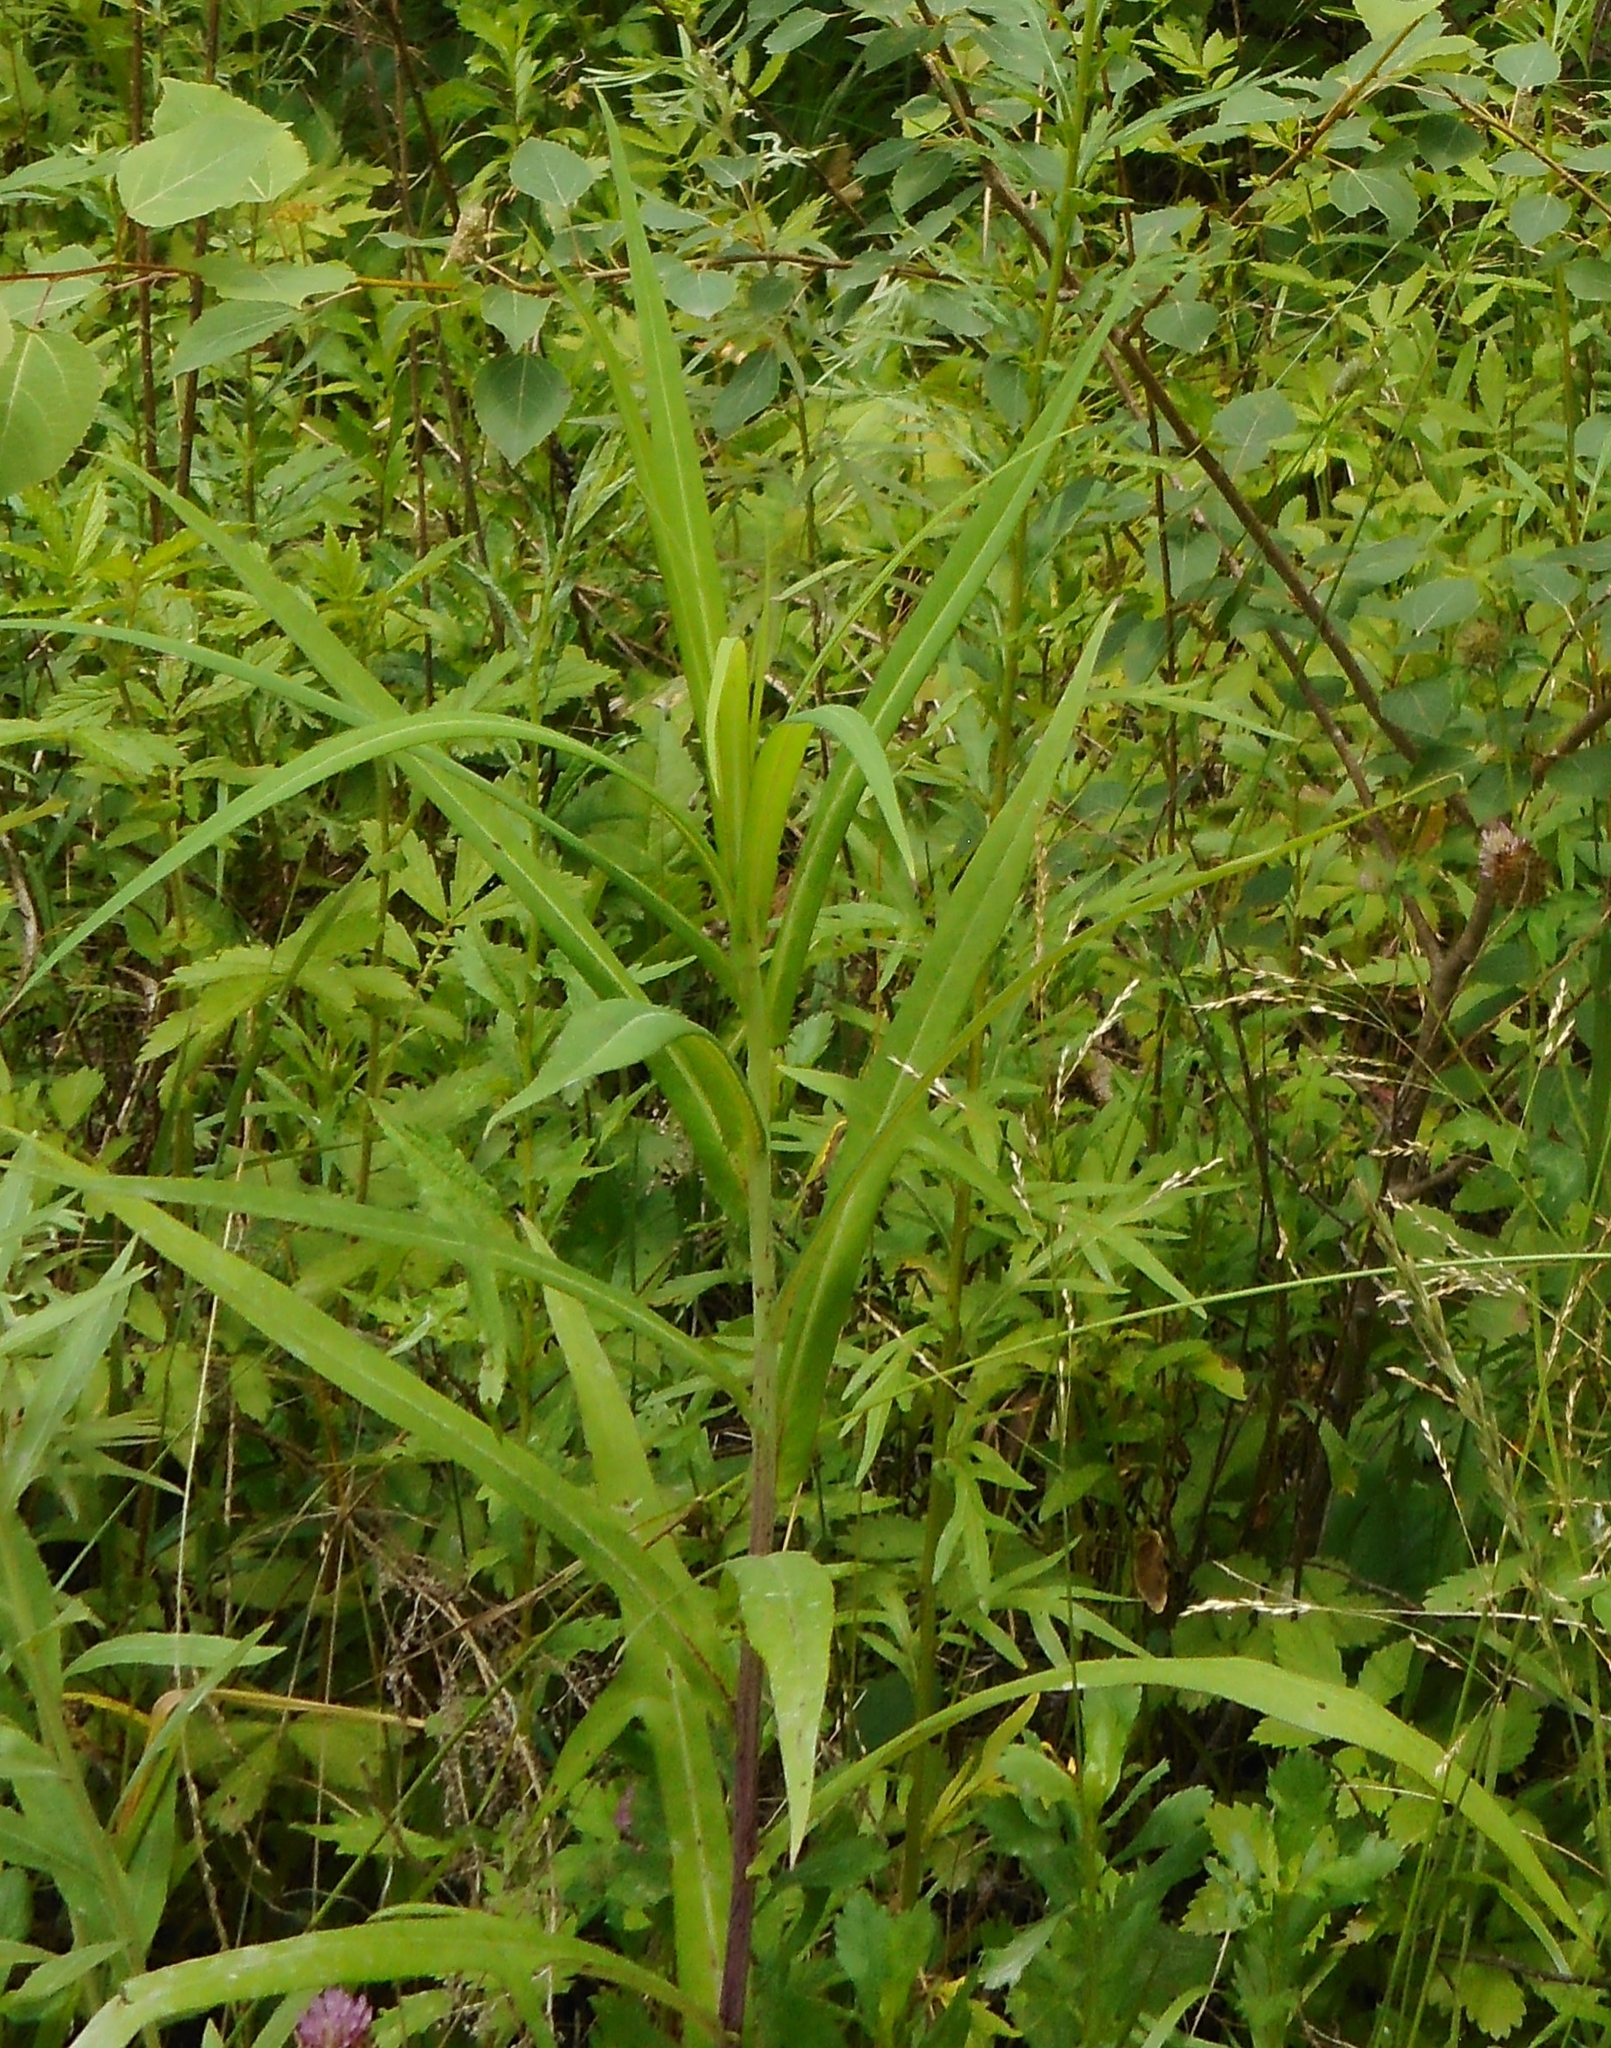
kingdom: Plantae
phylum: Tracheophyta
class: Magnoliopsida
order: Asterales
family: Asteraceae
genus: Lactuca
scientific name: Lactuca indica
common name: Wild lettuce
